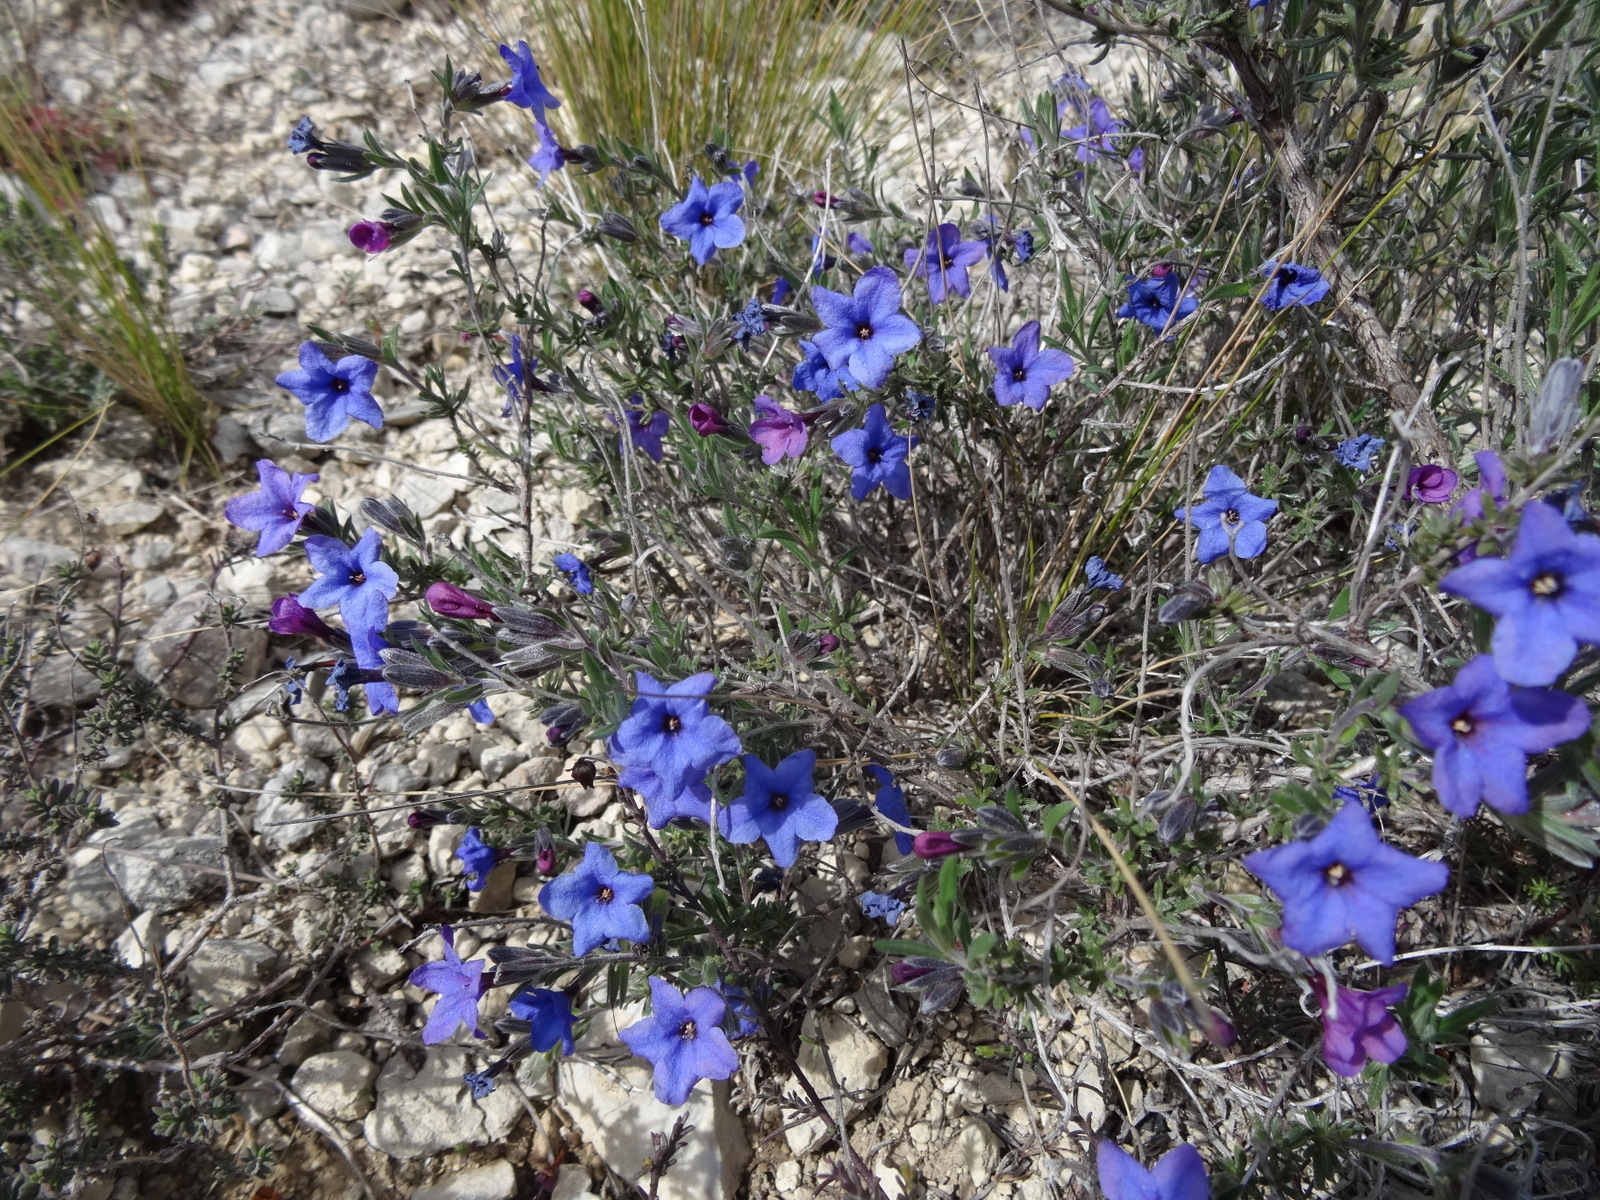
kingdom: Plantae
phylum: Tracheophyta
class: Magnoliopsida
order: Boraginales
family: Boraginaceae
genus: Lithodora
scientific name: Lithodora fruticosa
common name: Shrubby gromwell
